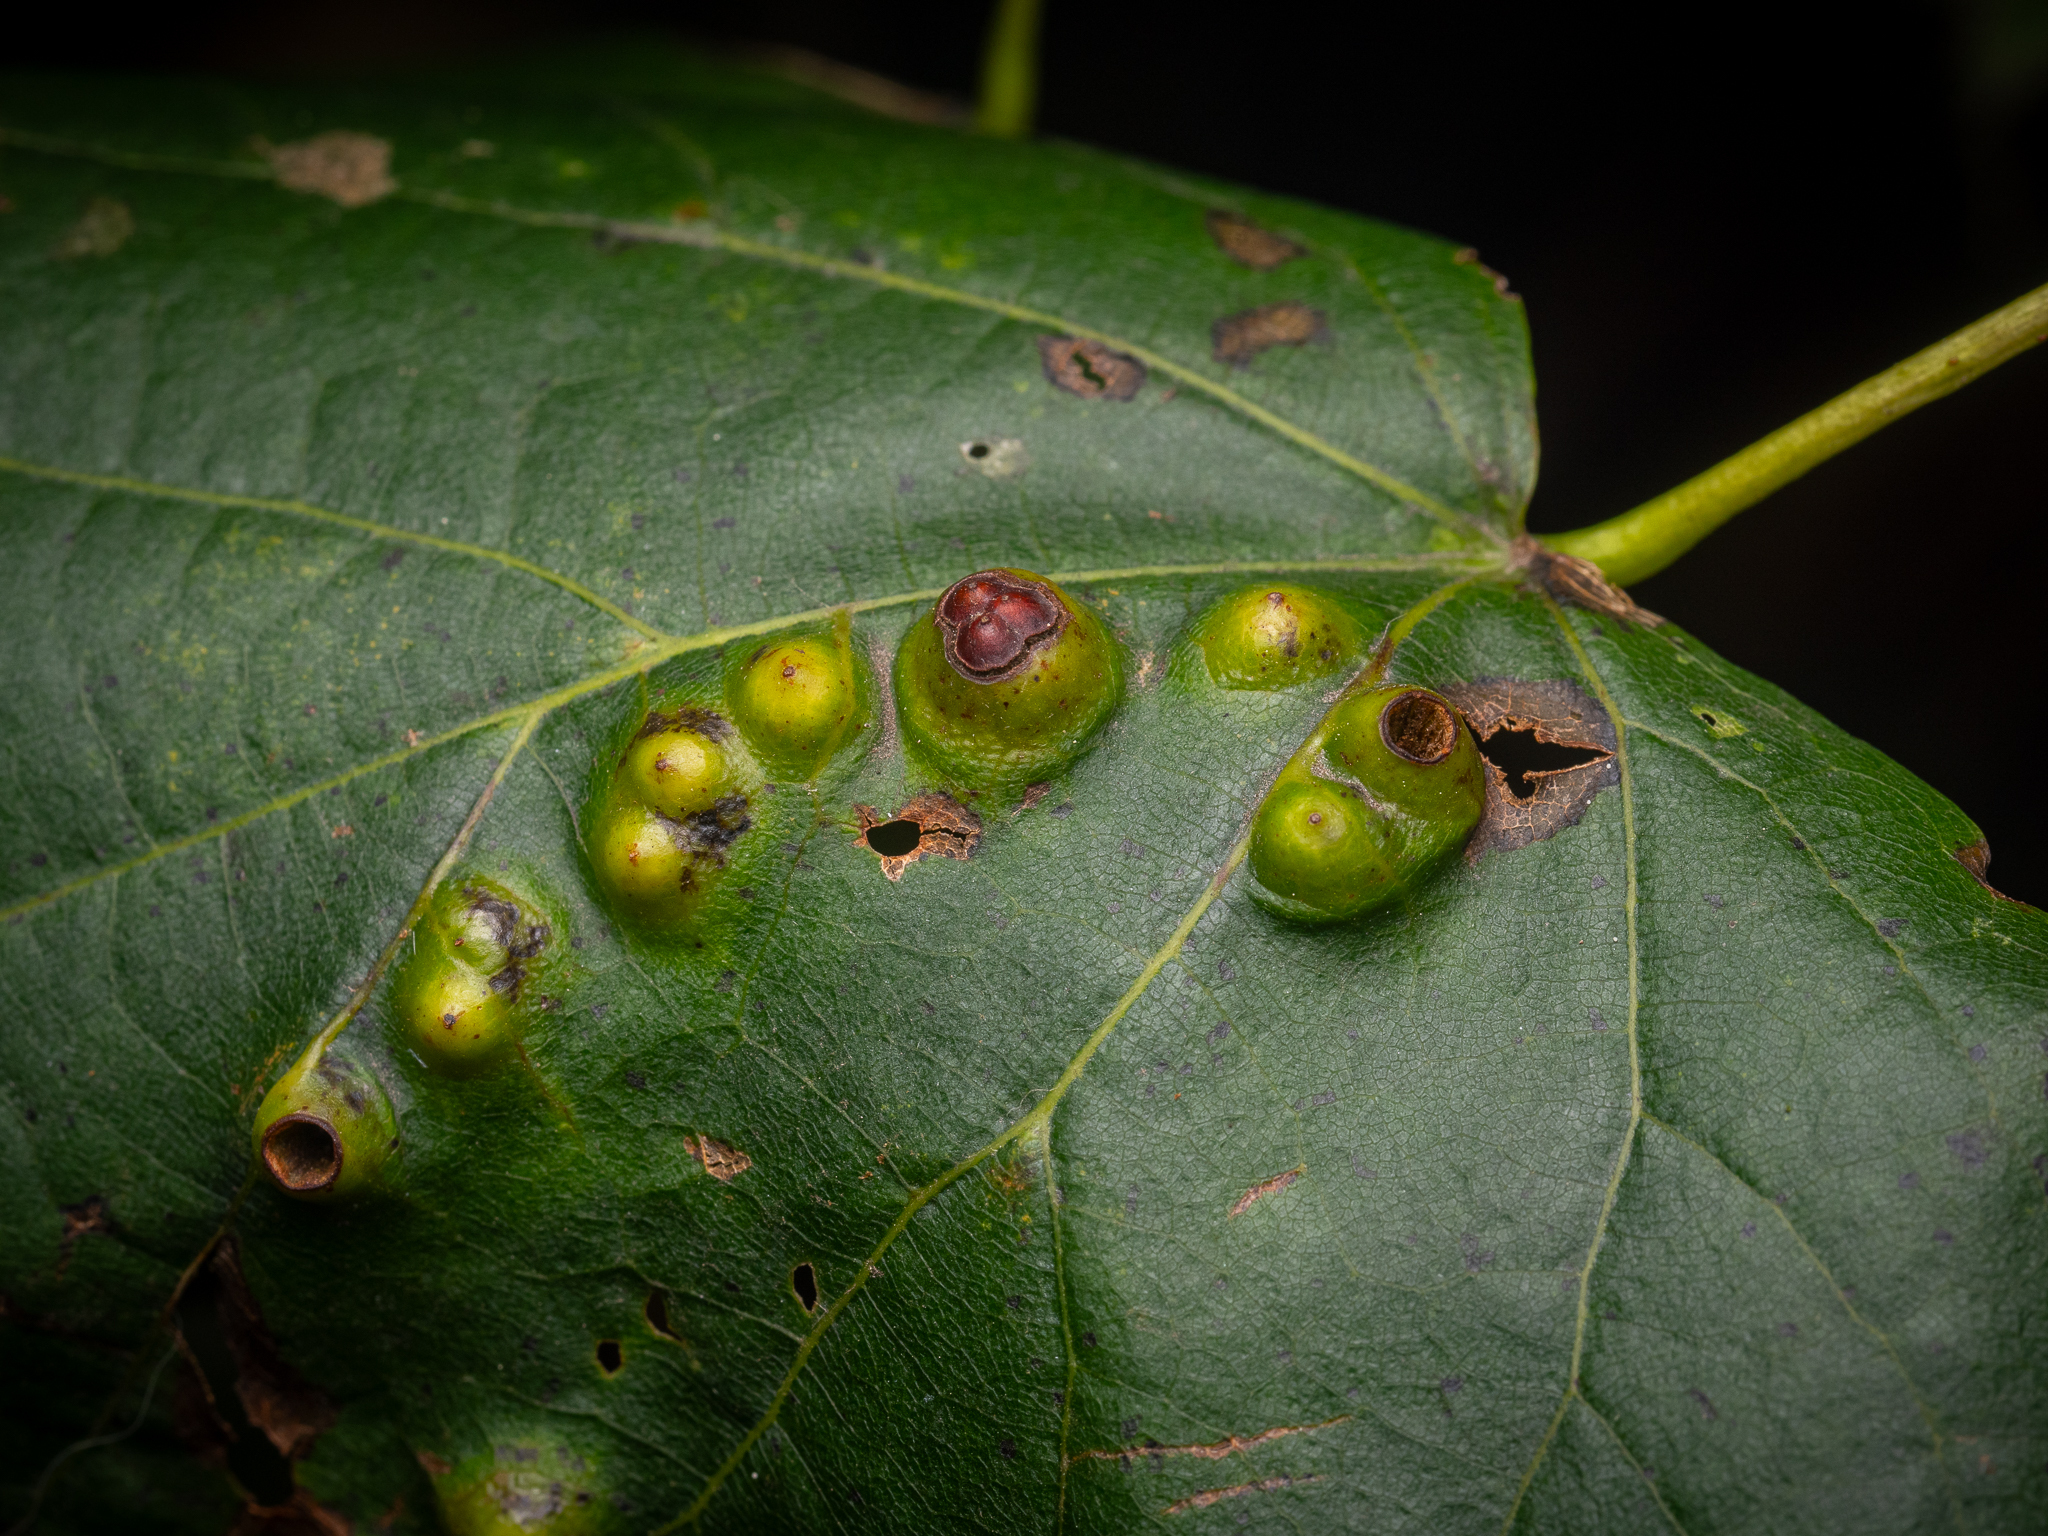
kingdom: Animalia
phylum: Arthropoda
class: Insecta
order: Diptera
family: Cecidomyiidae
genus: Didymomyia
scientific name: Didymomyia tiliacea
